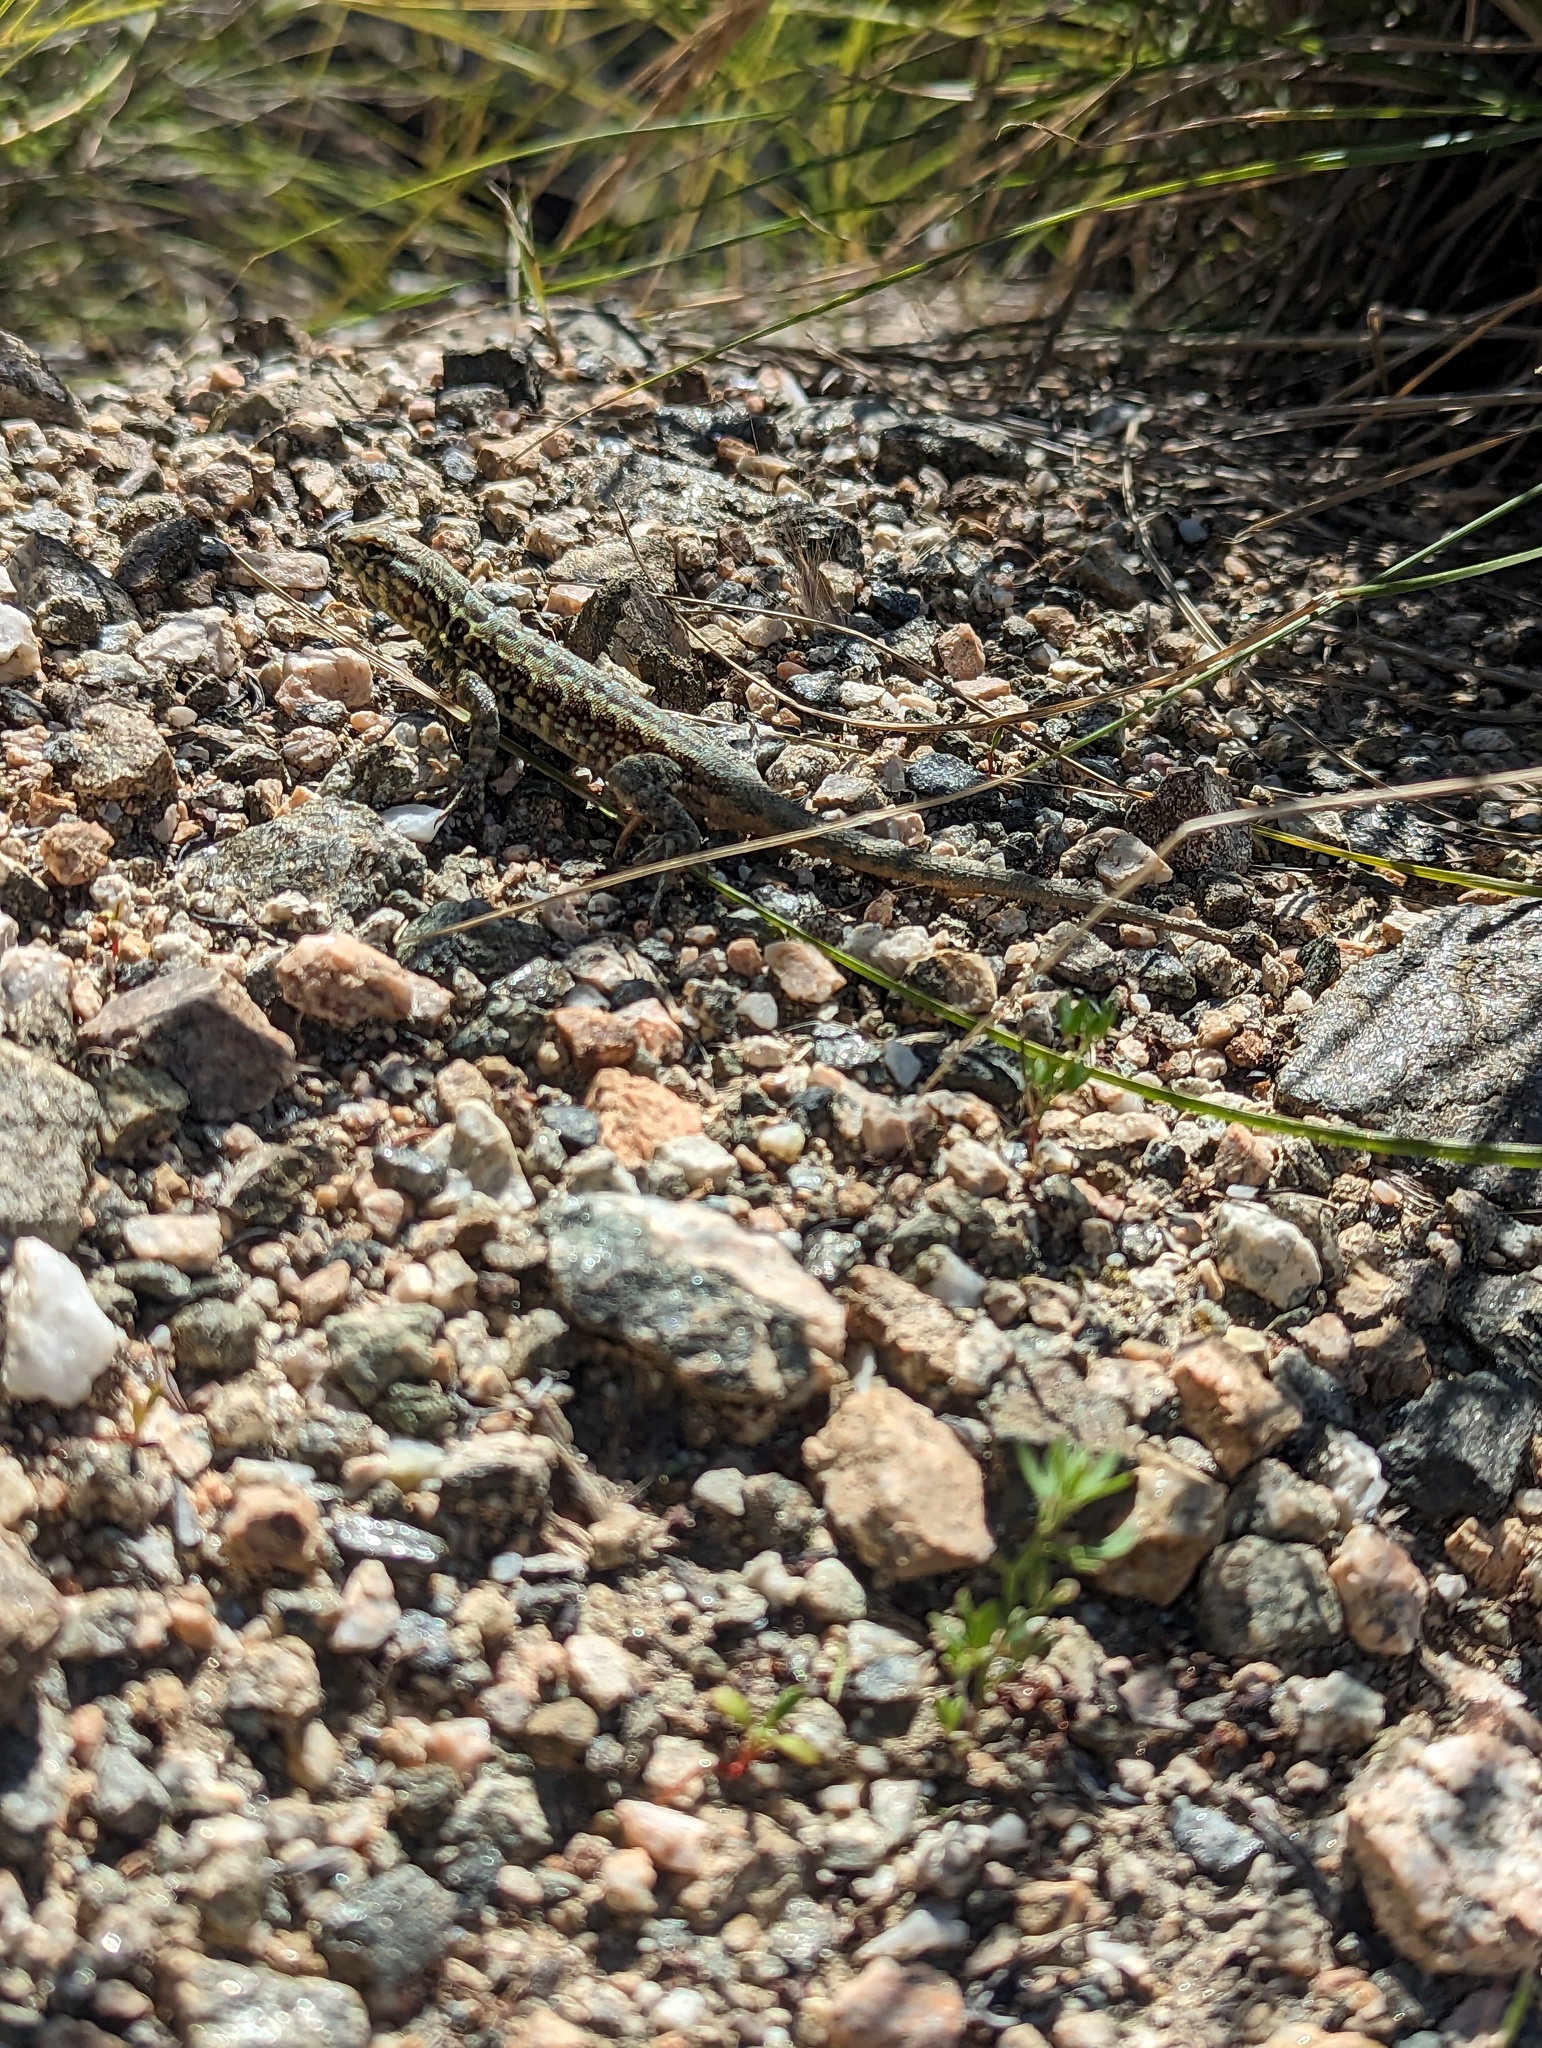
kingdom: Animalia
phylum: Chordata
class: Squamata
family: Phrynosomatidae
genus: Uta
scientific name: Uta stansburiana
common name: Side-blotched lizard
